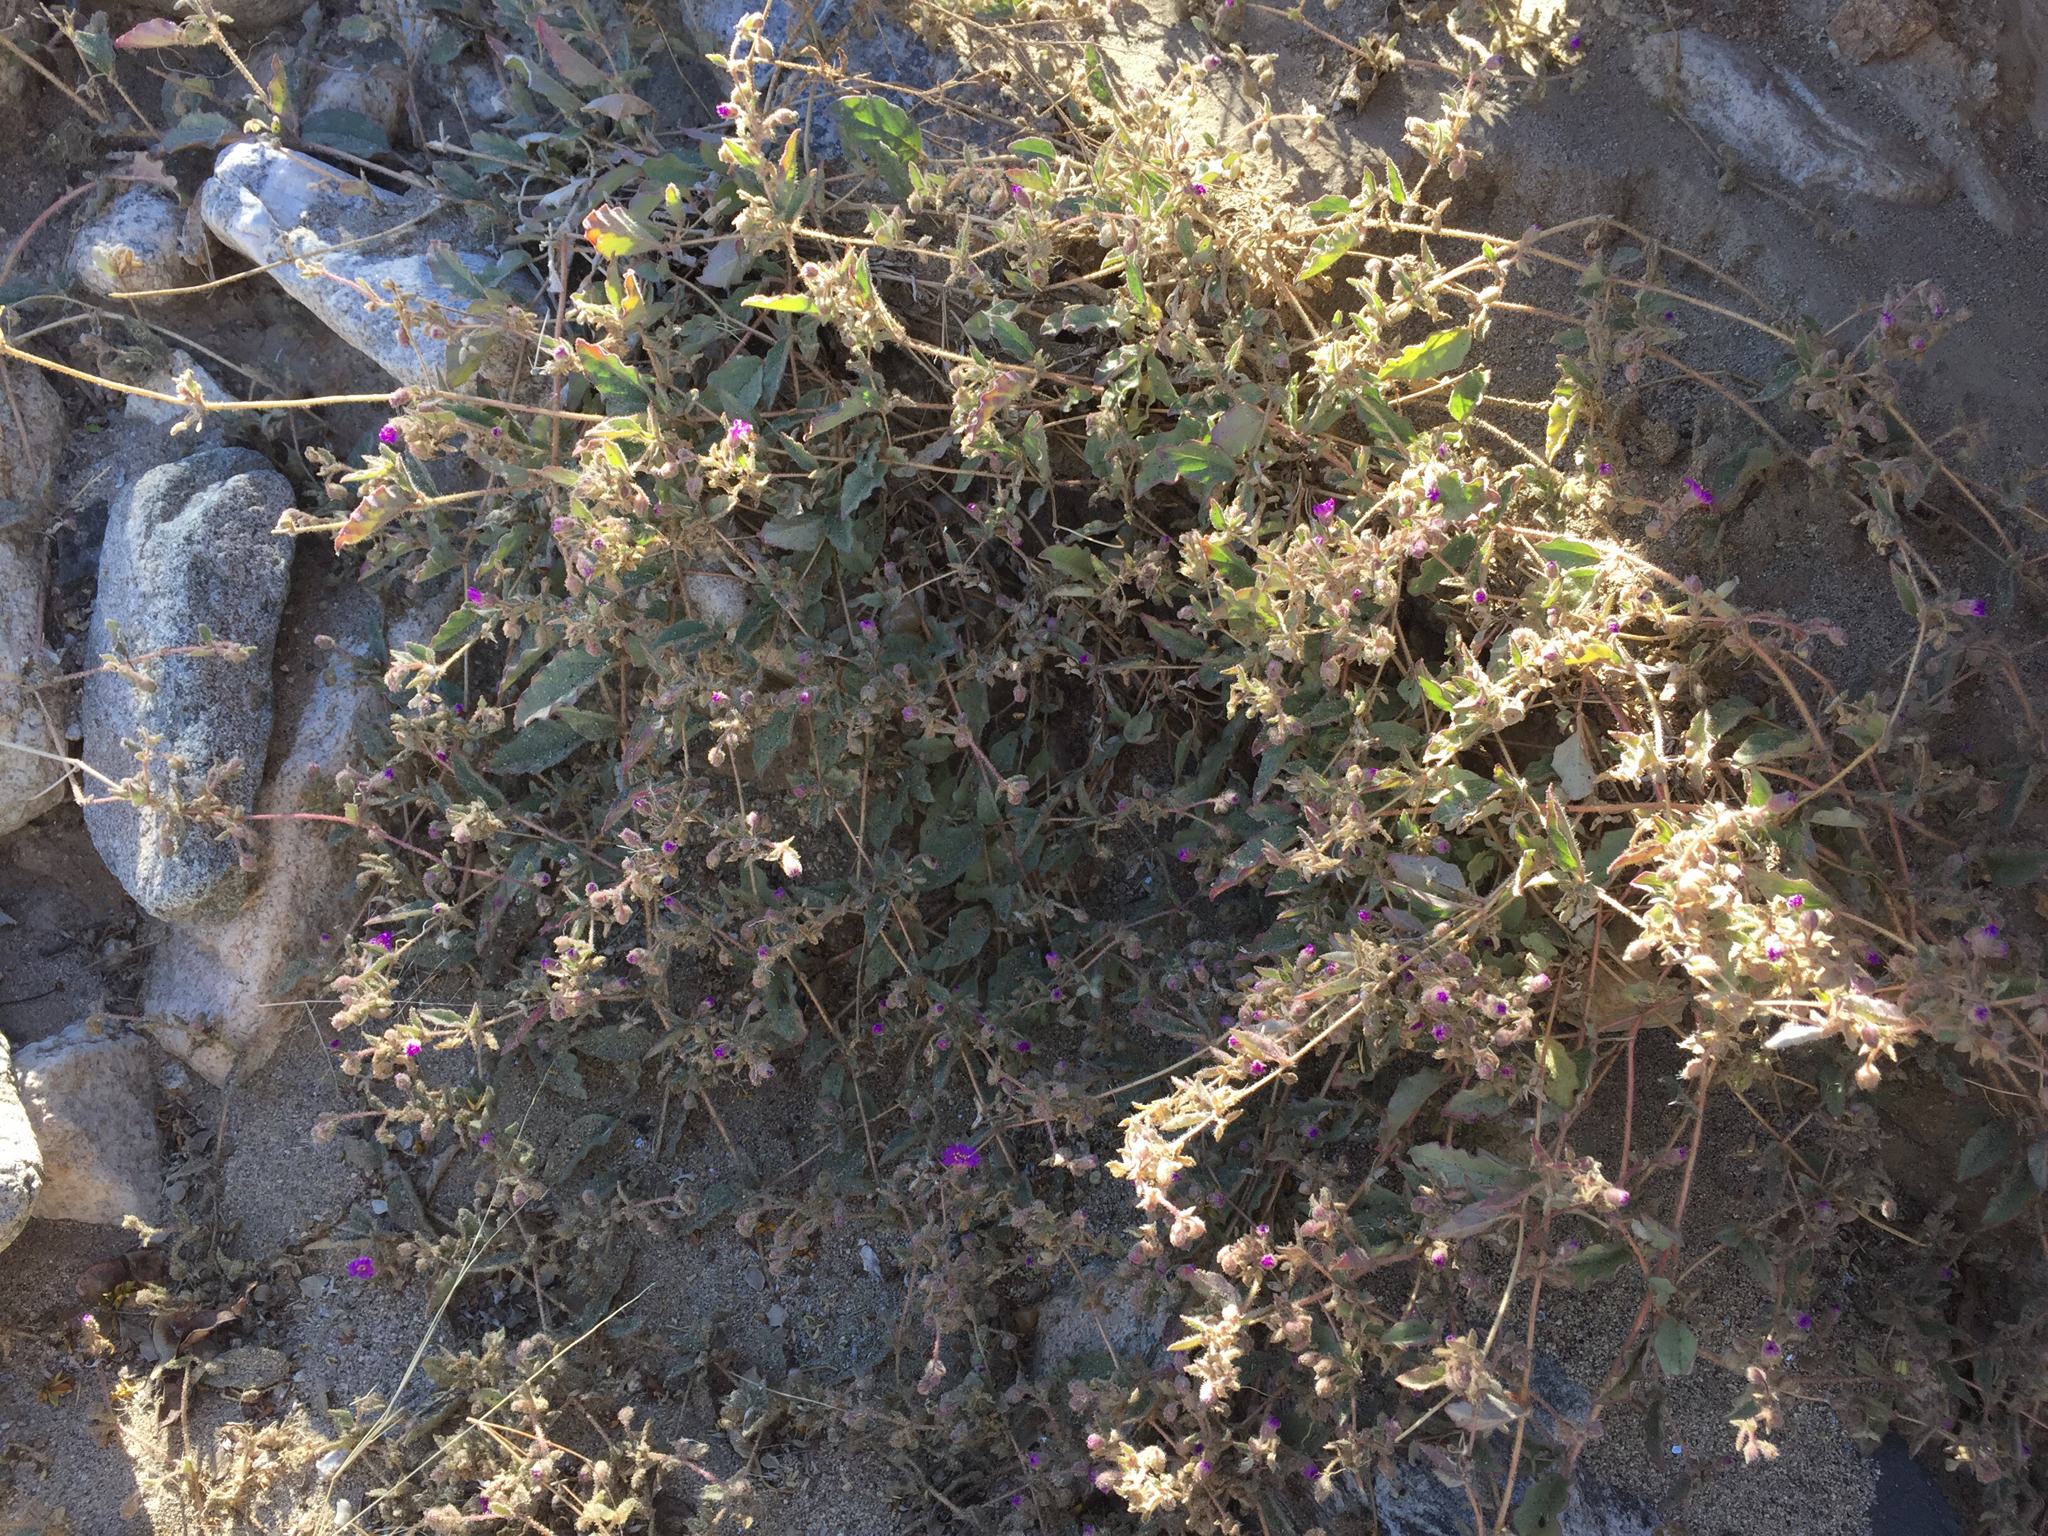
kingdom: Plantae
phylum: Tracheophyta
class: Magnoliopsida
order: Caryophyllales
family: Nyctaginaceae
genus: Allionia
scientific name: Allionia incarnata
